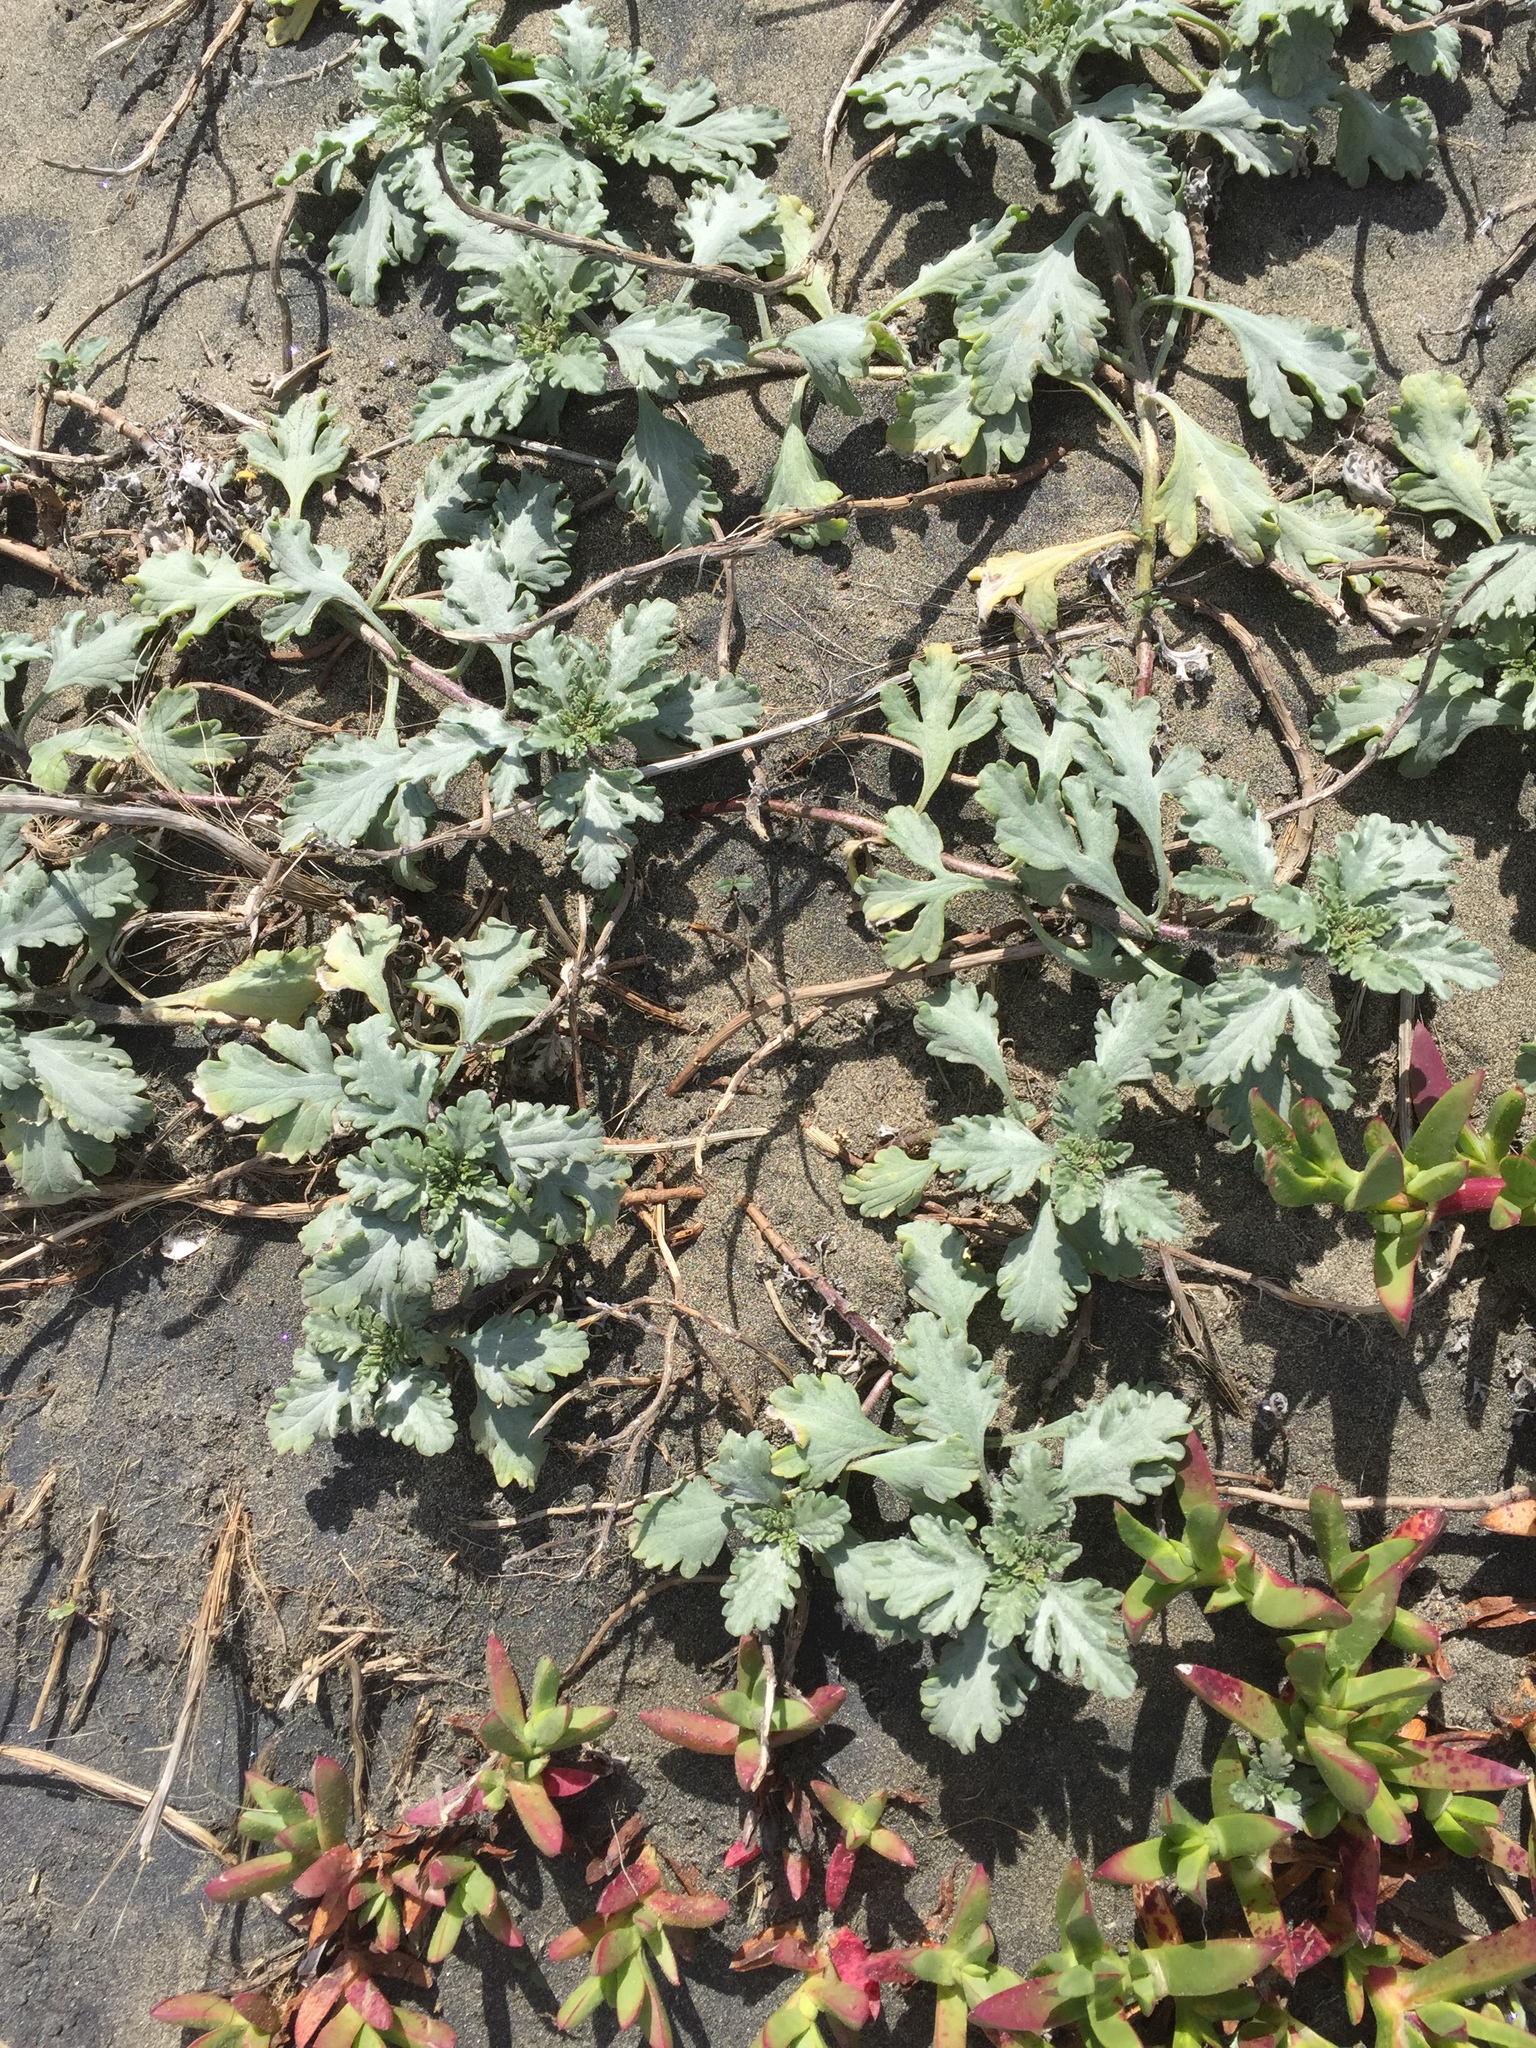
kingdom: Plantae
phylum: Tracheophyta
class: Magnoliopsida
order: Asterales
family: Asteraceae
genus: Ambrosia
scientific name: Ambrosia chamissonis
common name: Beachbur
